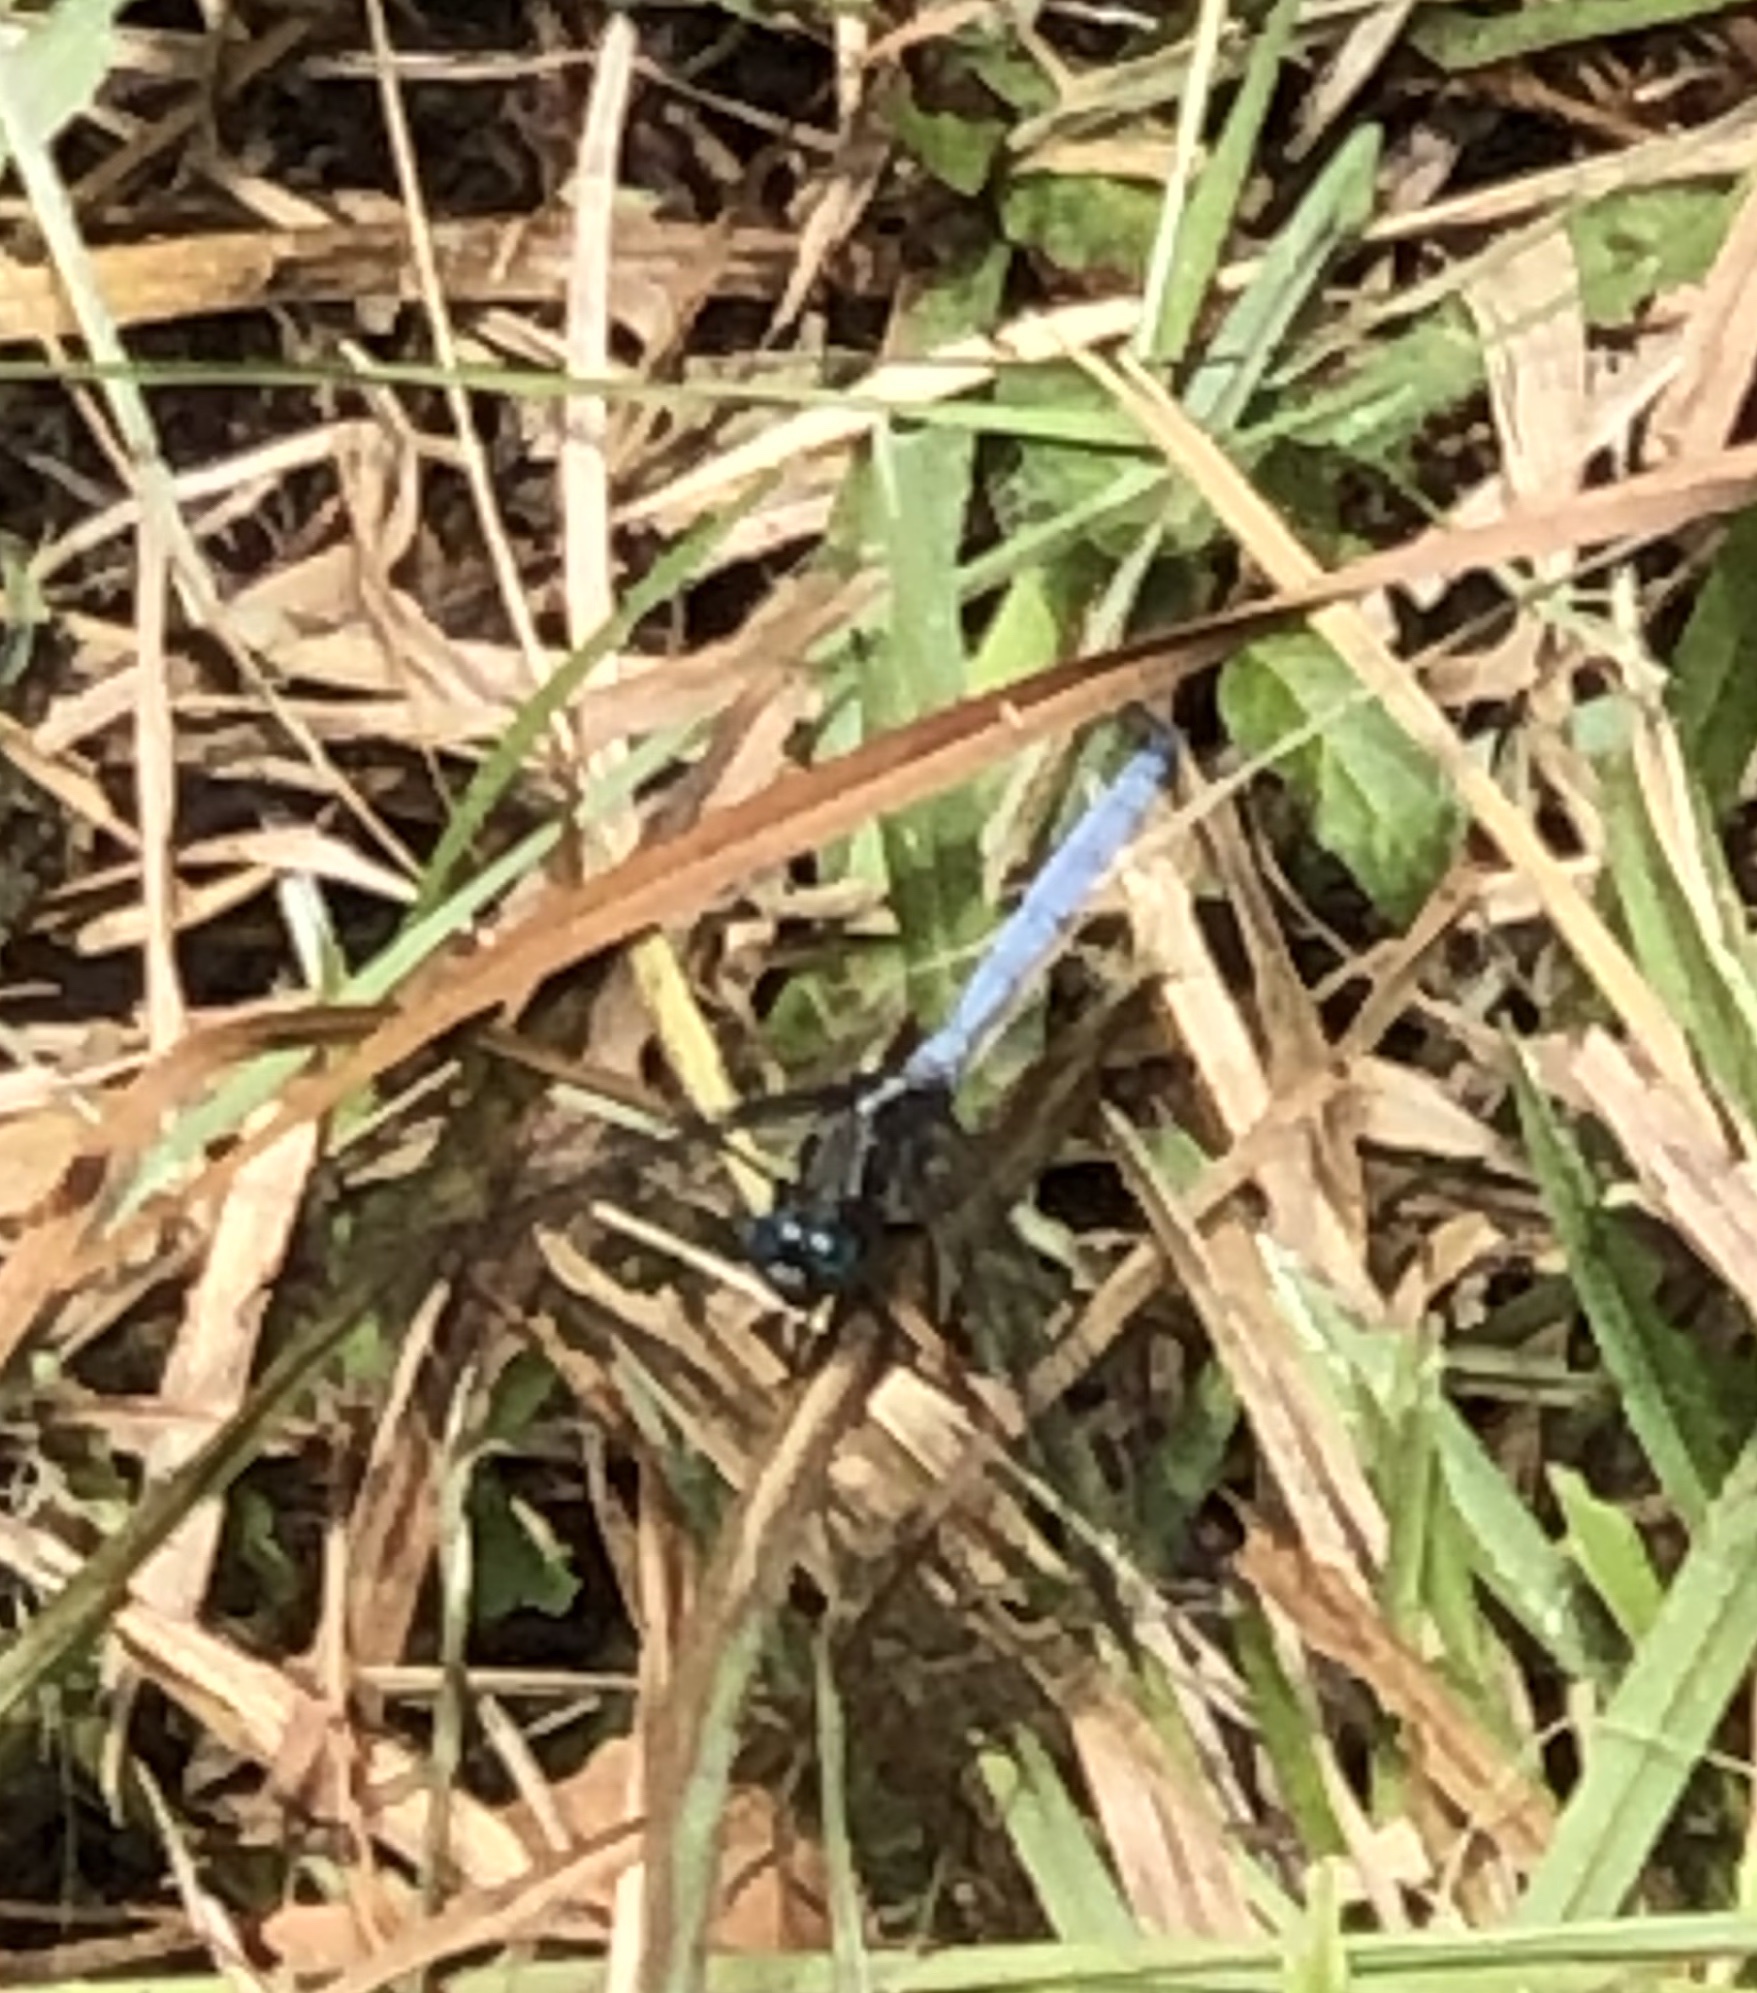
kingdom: Animalia
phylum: Arthropoda
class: Insecta
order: Odonata
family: Libellulidae
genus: Orthetrum
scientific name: Orthetrum julia
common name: Julia skimmer
